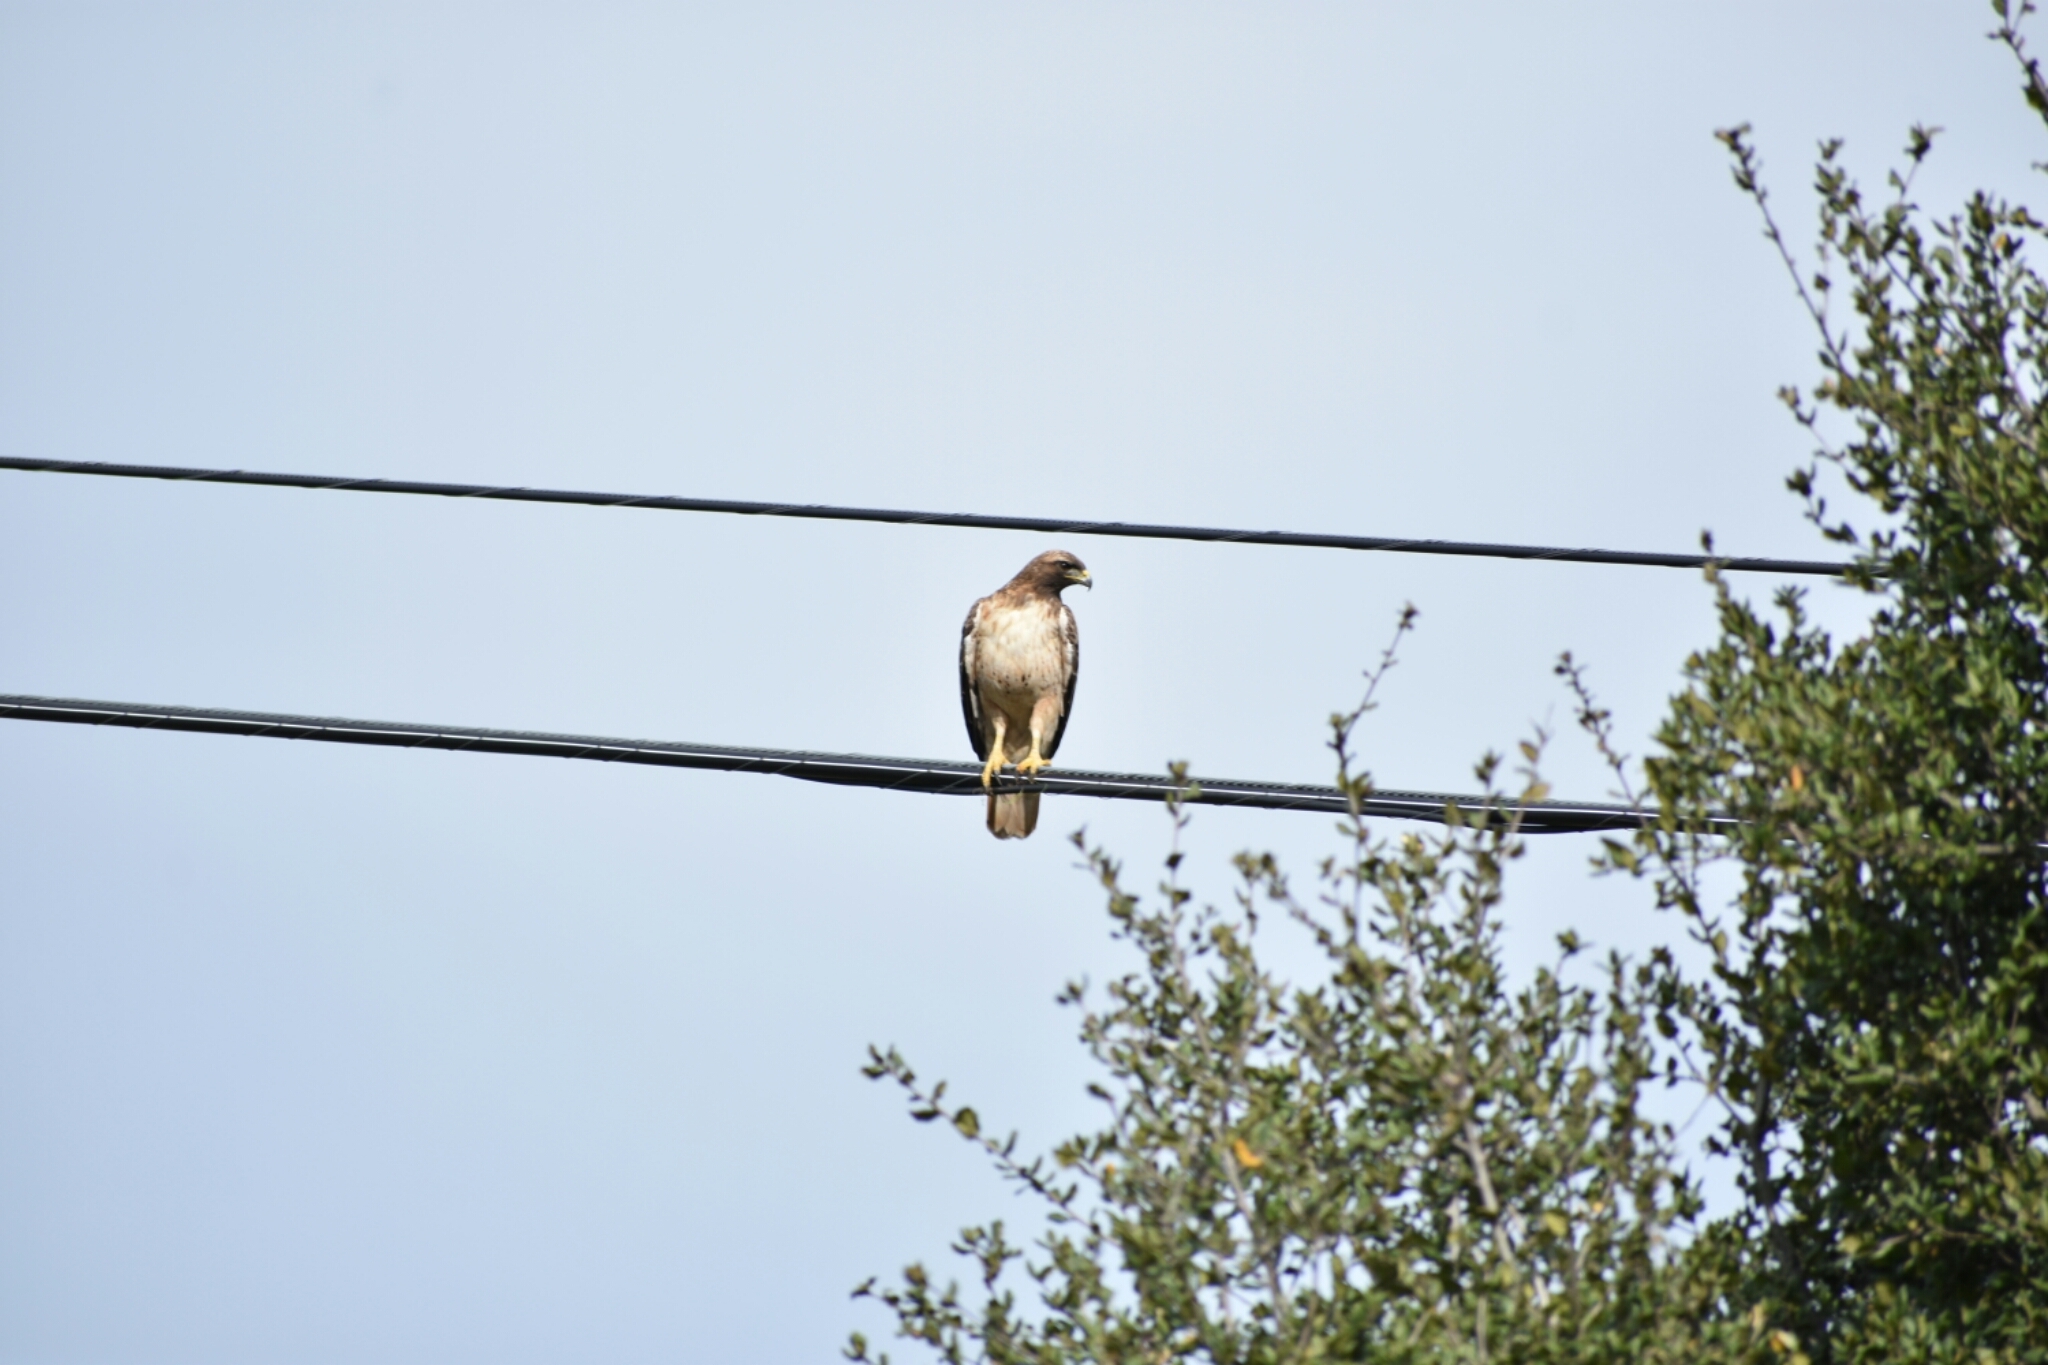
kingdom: Animalia
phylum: Chordata
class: Aves
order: Accipitriformes
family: Accipitridae
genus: Buteo
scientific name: Buteo jamaicensis
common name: Red-tailed hawk
